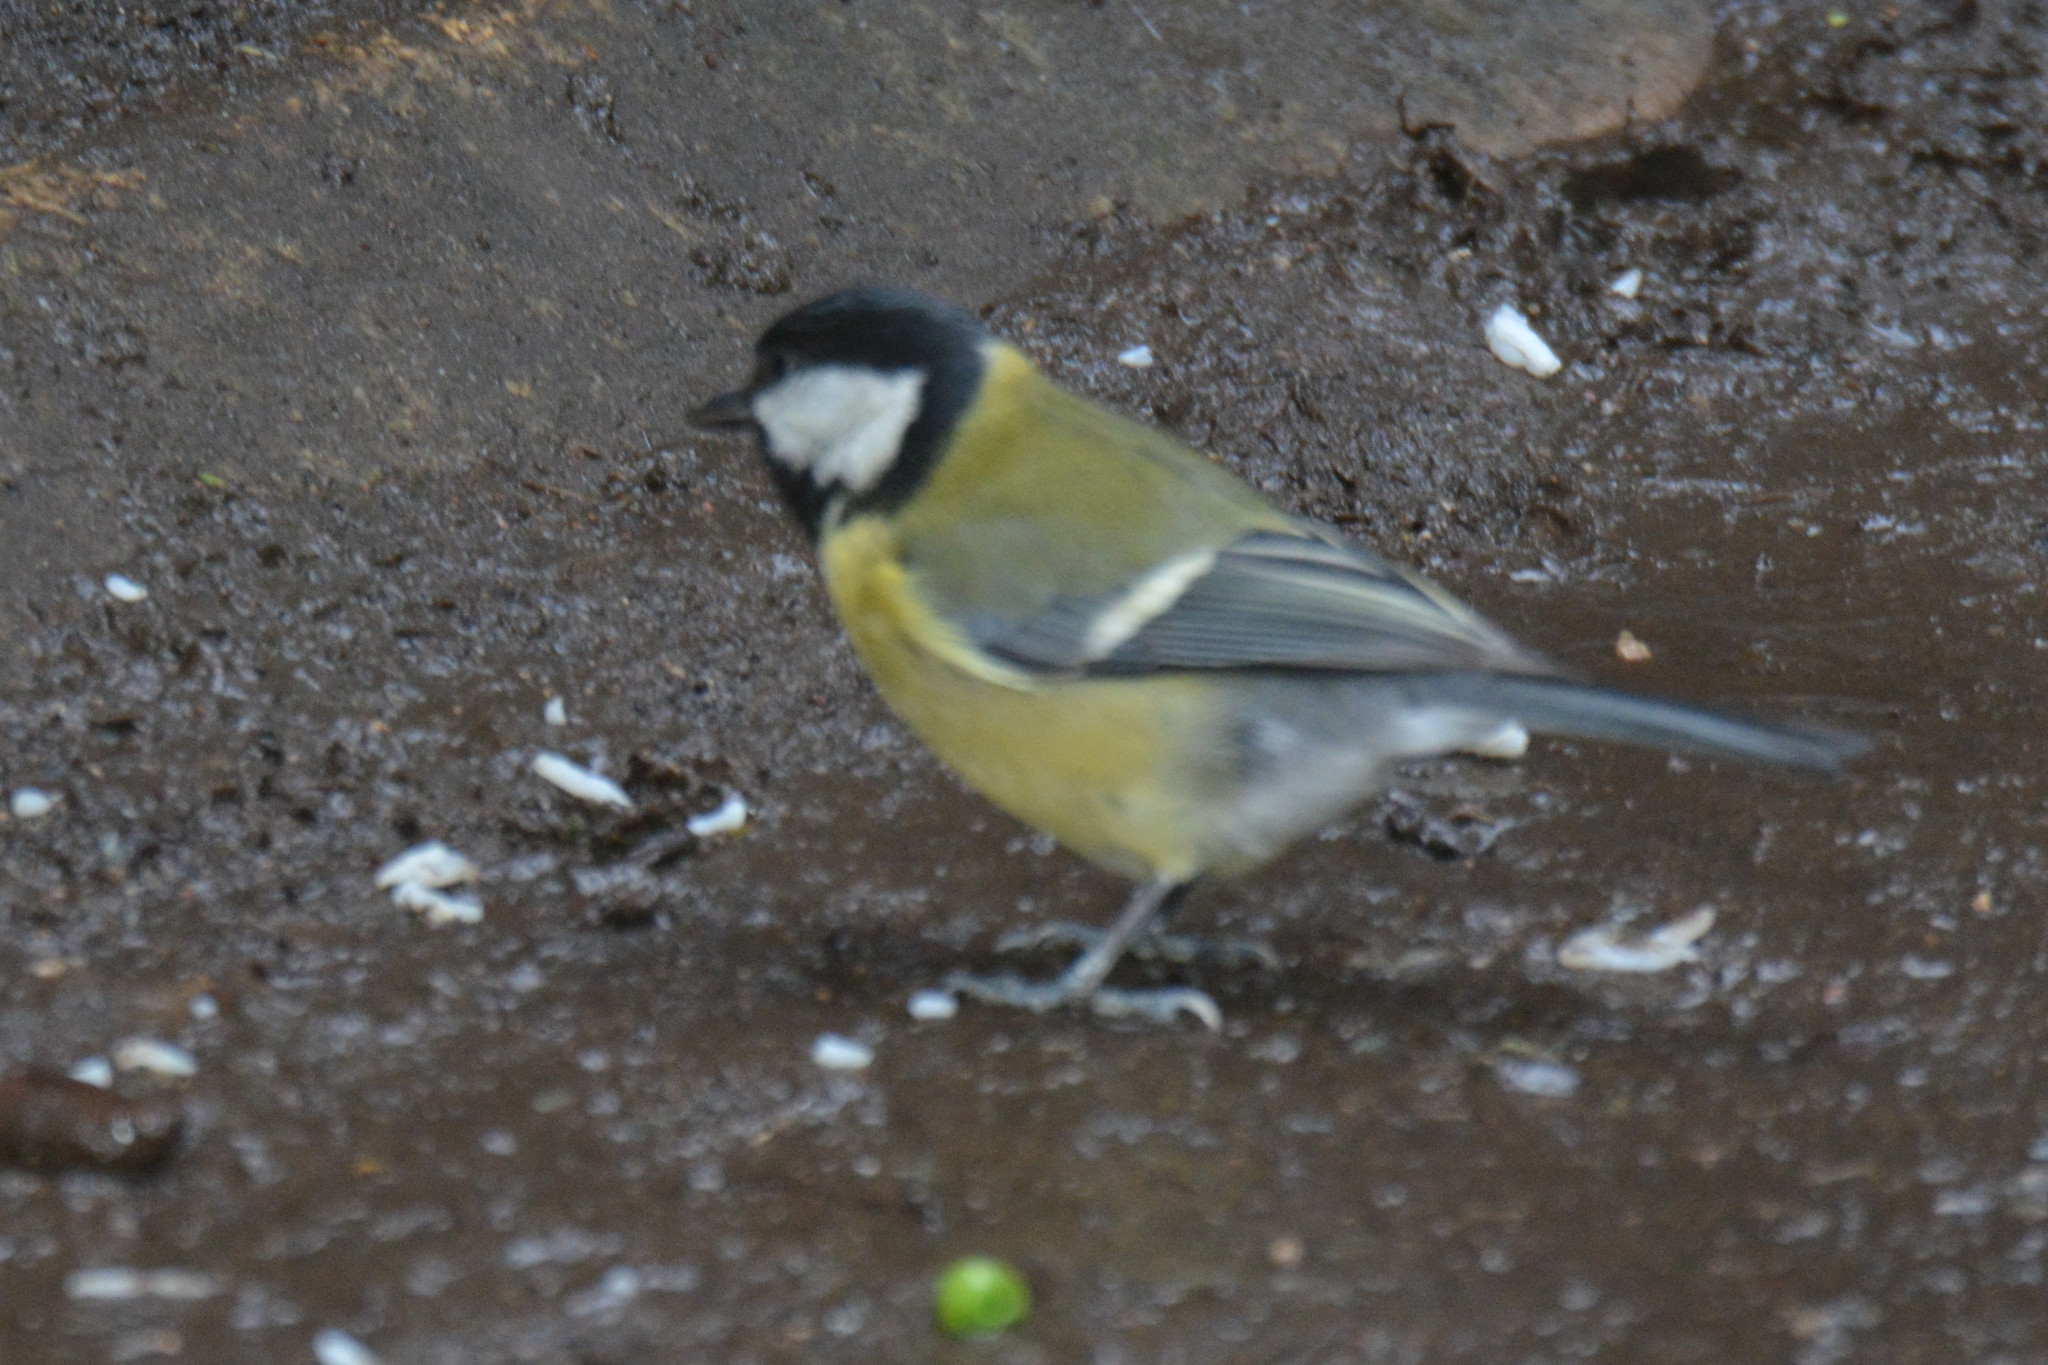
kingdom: Animalia
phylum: Chordata
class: Aves
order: Passeriformes
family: Paridae
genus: Parus
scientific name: Parus major
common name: Great tit
